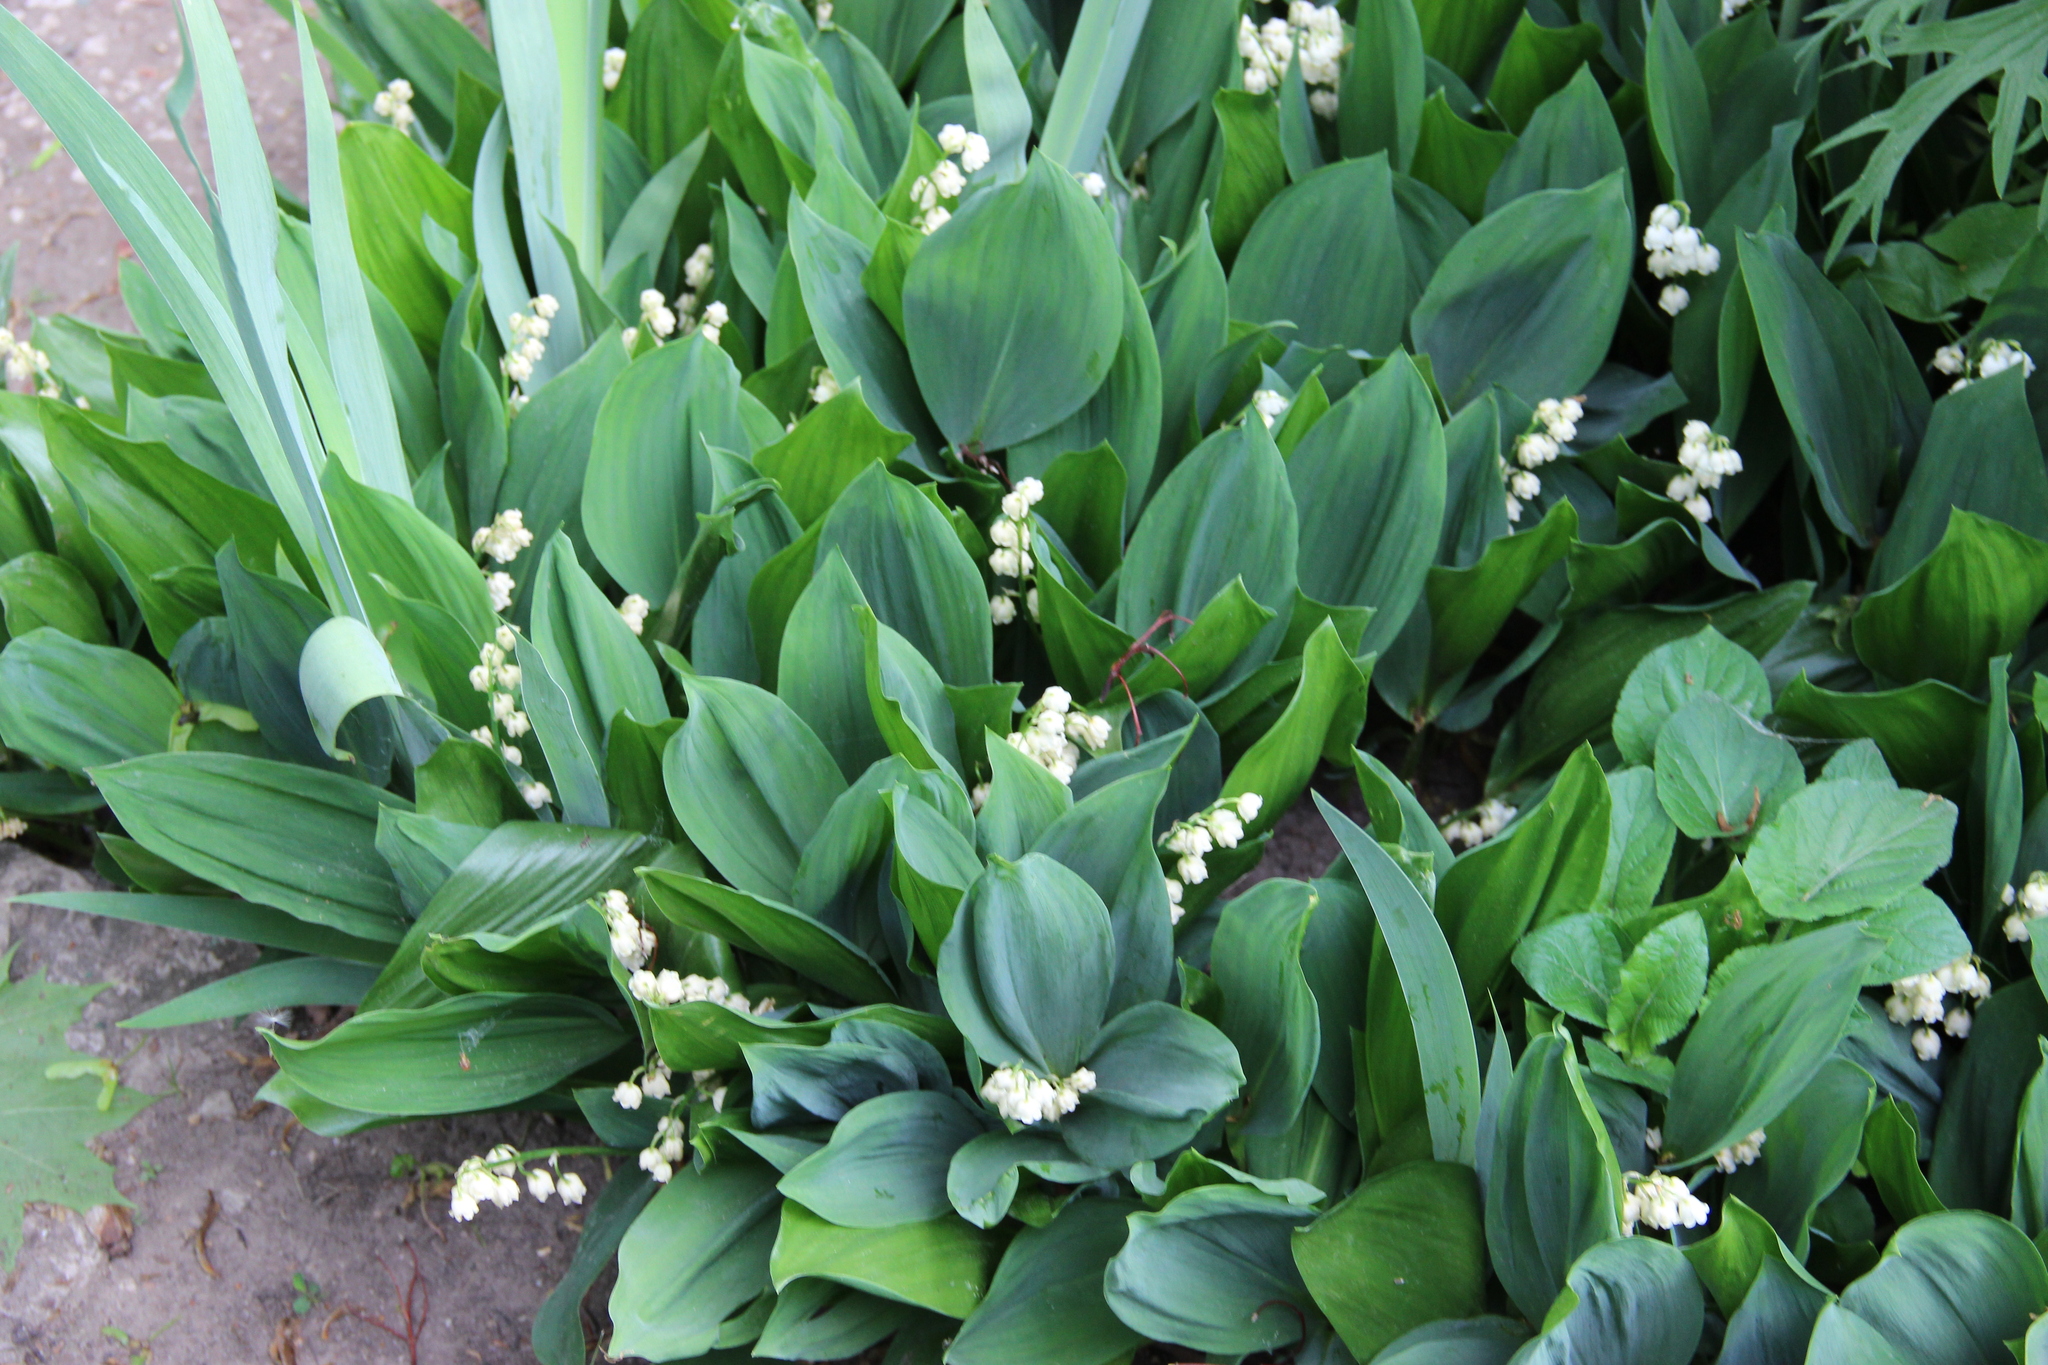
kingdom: Plantae
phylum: Tracheophyta
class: Liliopsida
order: Asparagales
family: Asparagaceae
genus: Convallaria
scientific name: Convallaria majalis
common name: Lily-of-the-valley
